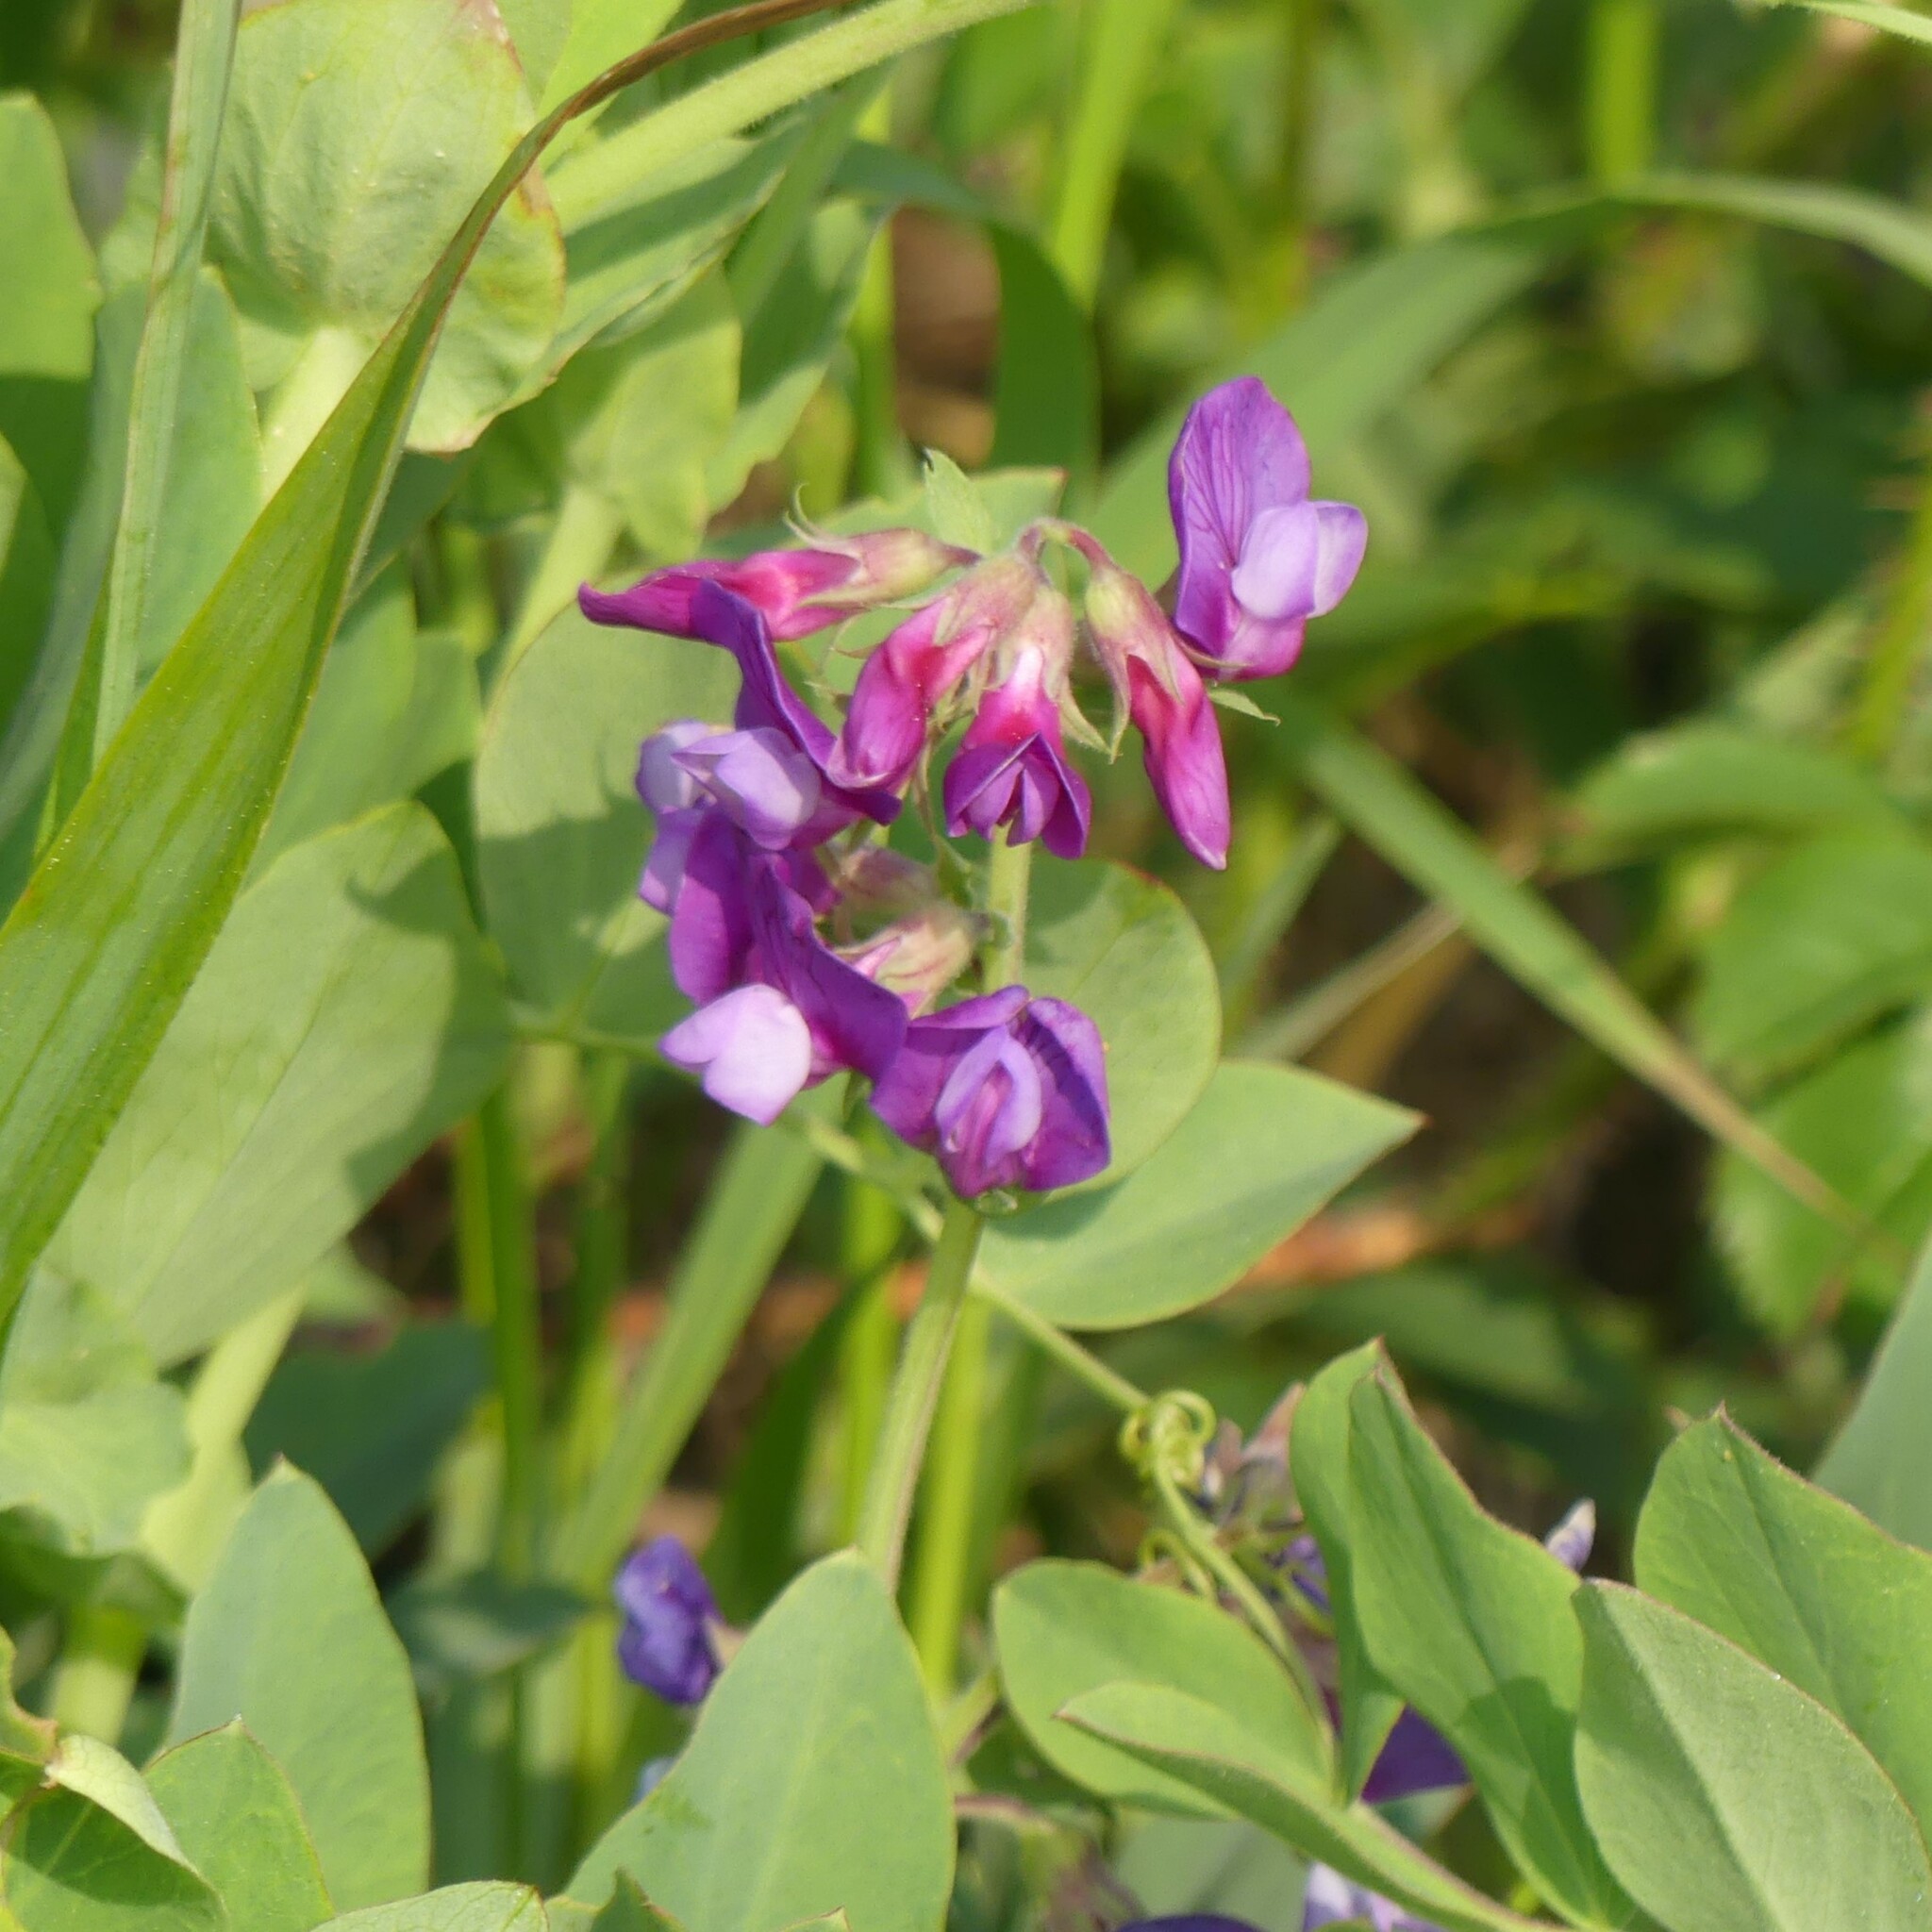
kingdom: Plantae
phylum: Tracheophyta
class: Magnoliopsida
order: Fabales
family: Fabaceae
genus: Lathyrus
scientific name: Lathyrus japonicus
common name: Sea pea
